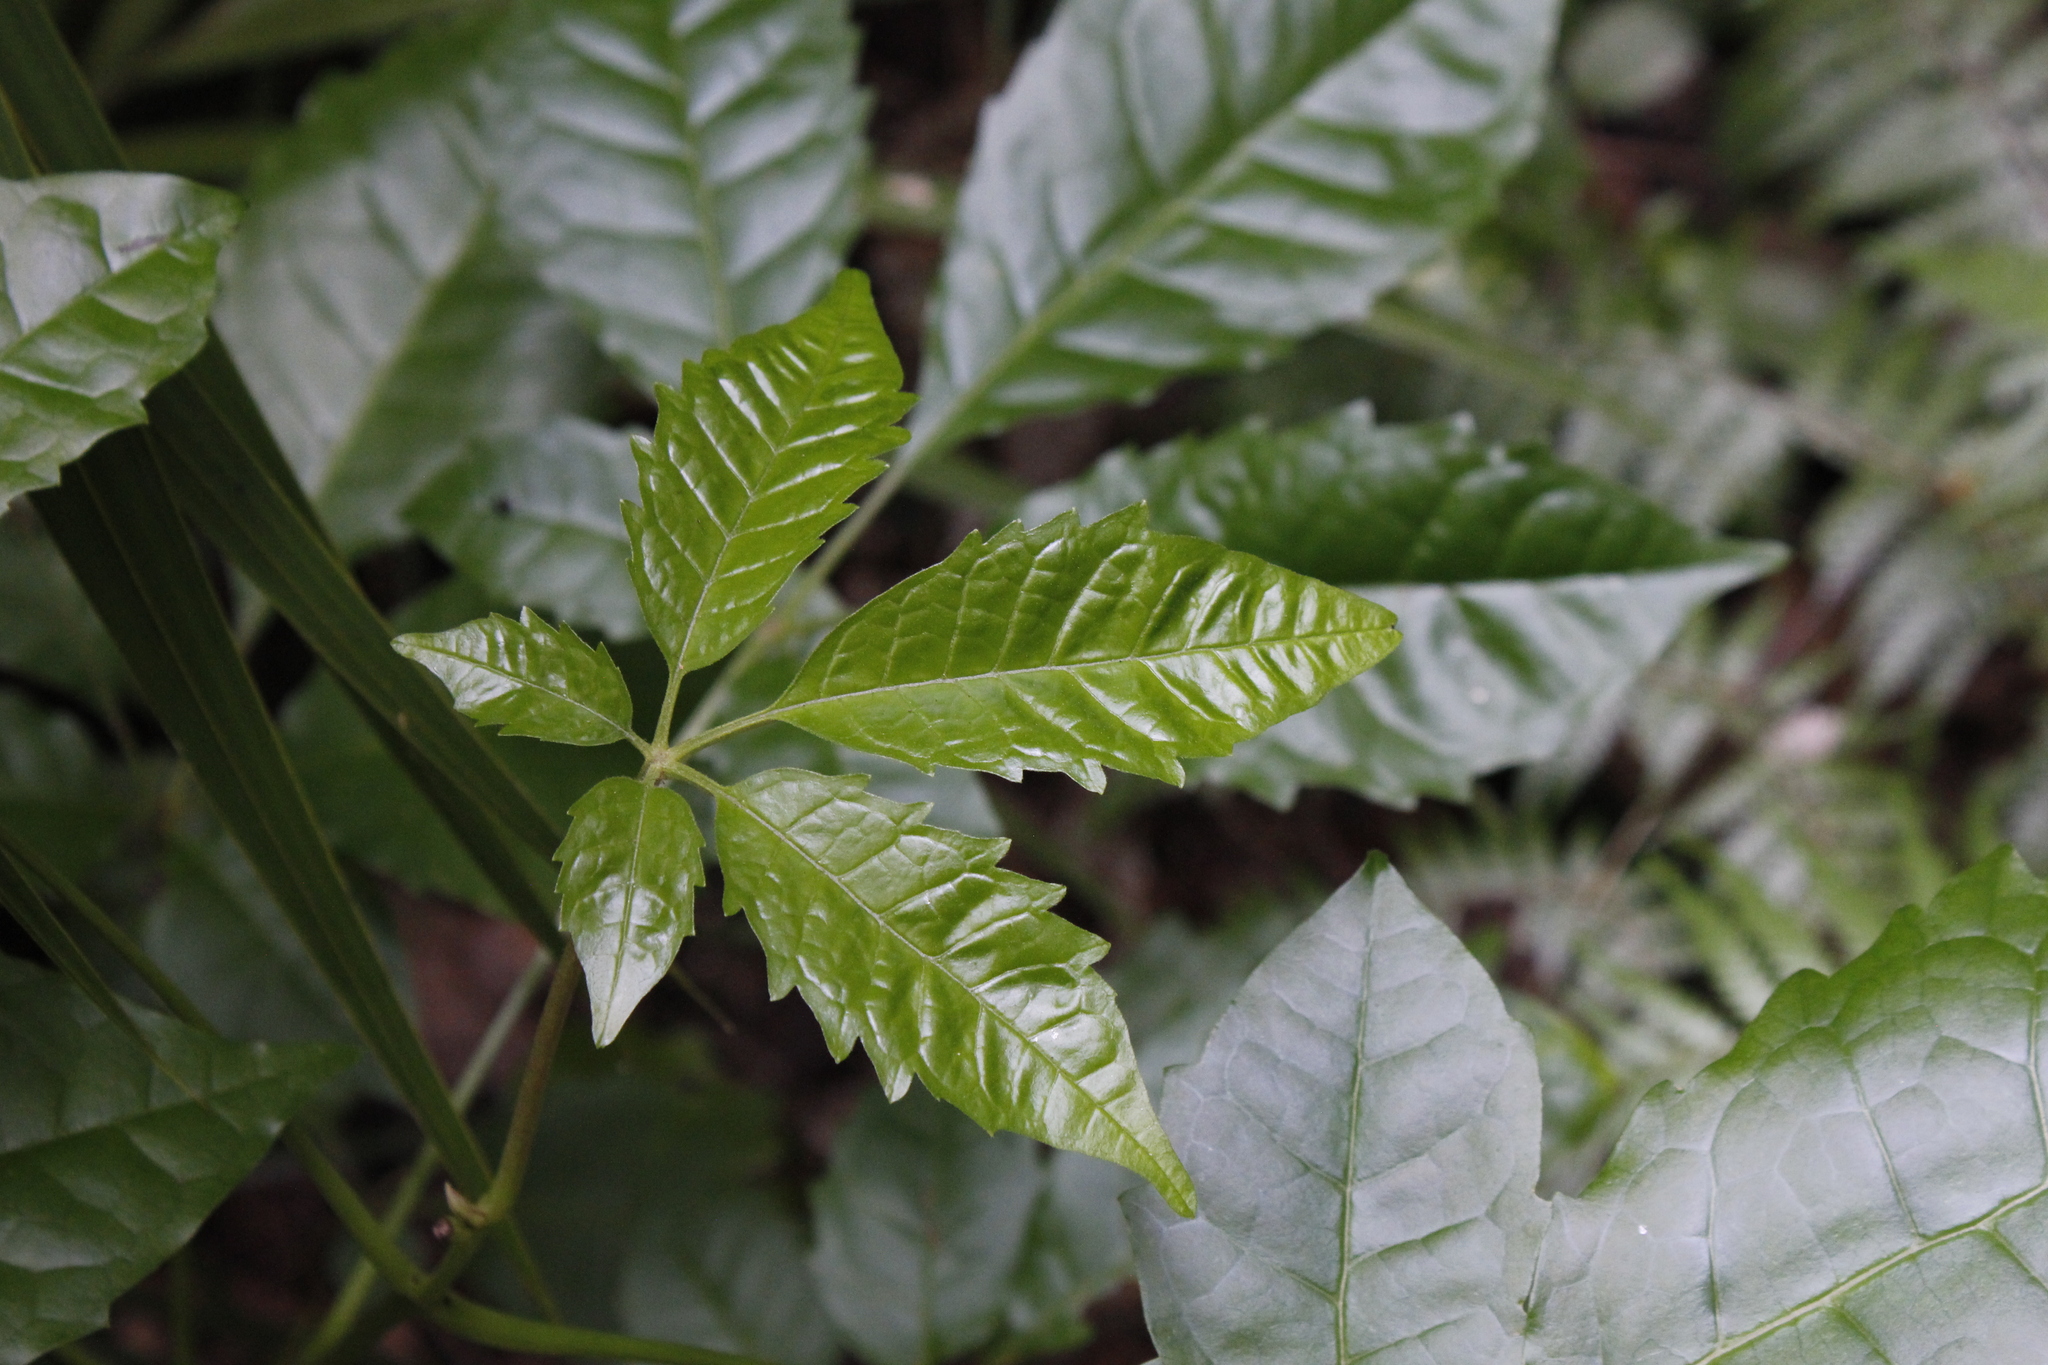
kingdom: Plantae
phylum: Tracheophyta
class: Magnoliopsida
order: Lamiales
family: Lamiaceae
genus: Vitex
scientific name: Vitex lucens
